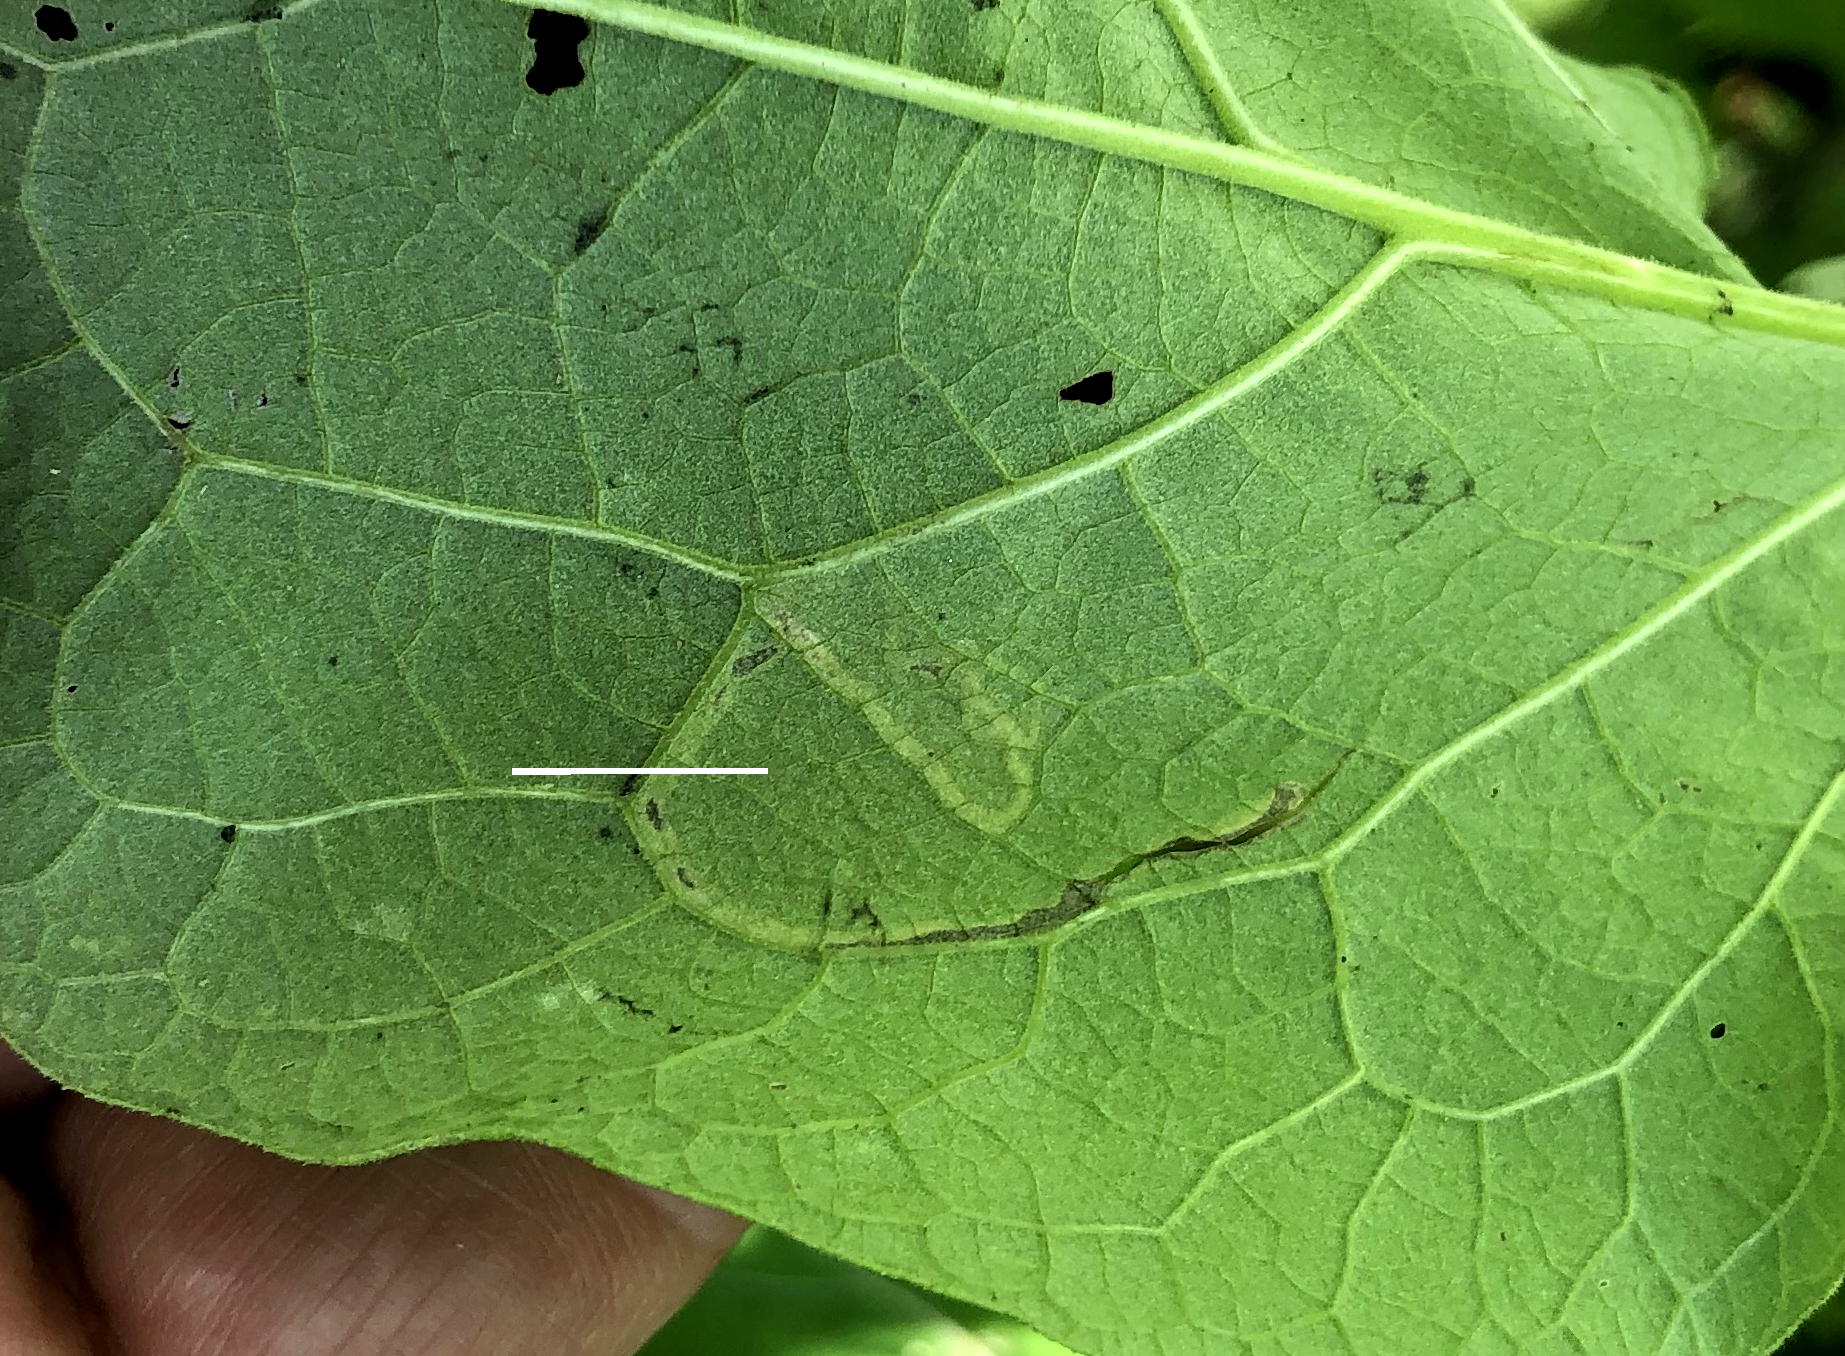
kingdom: Animalia
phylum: Arthropoda
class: Insecta
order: Diptera
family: Agromyzidae
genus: Liriomyza
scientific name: Liriomyza arctii
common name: Burdock leafminer
